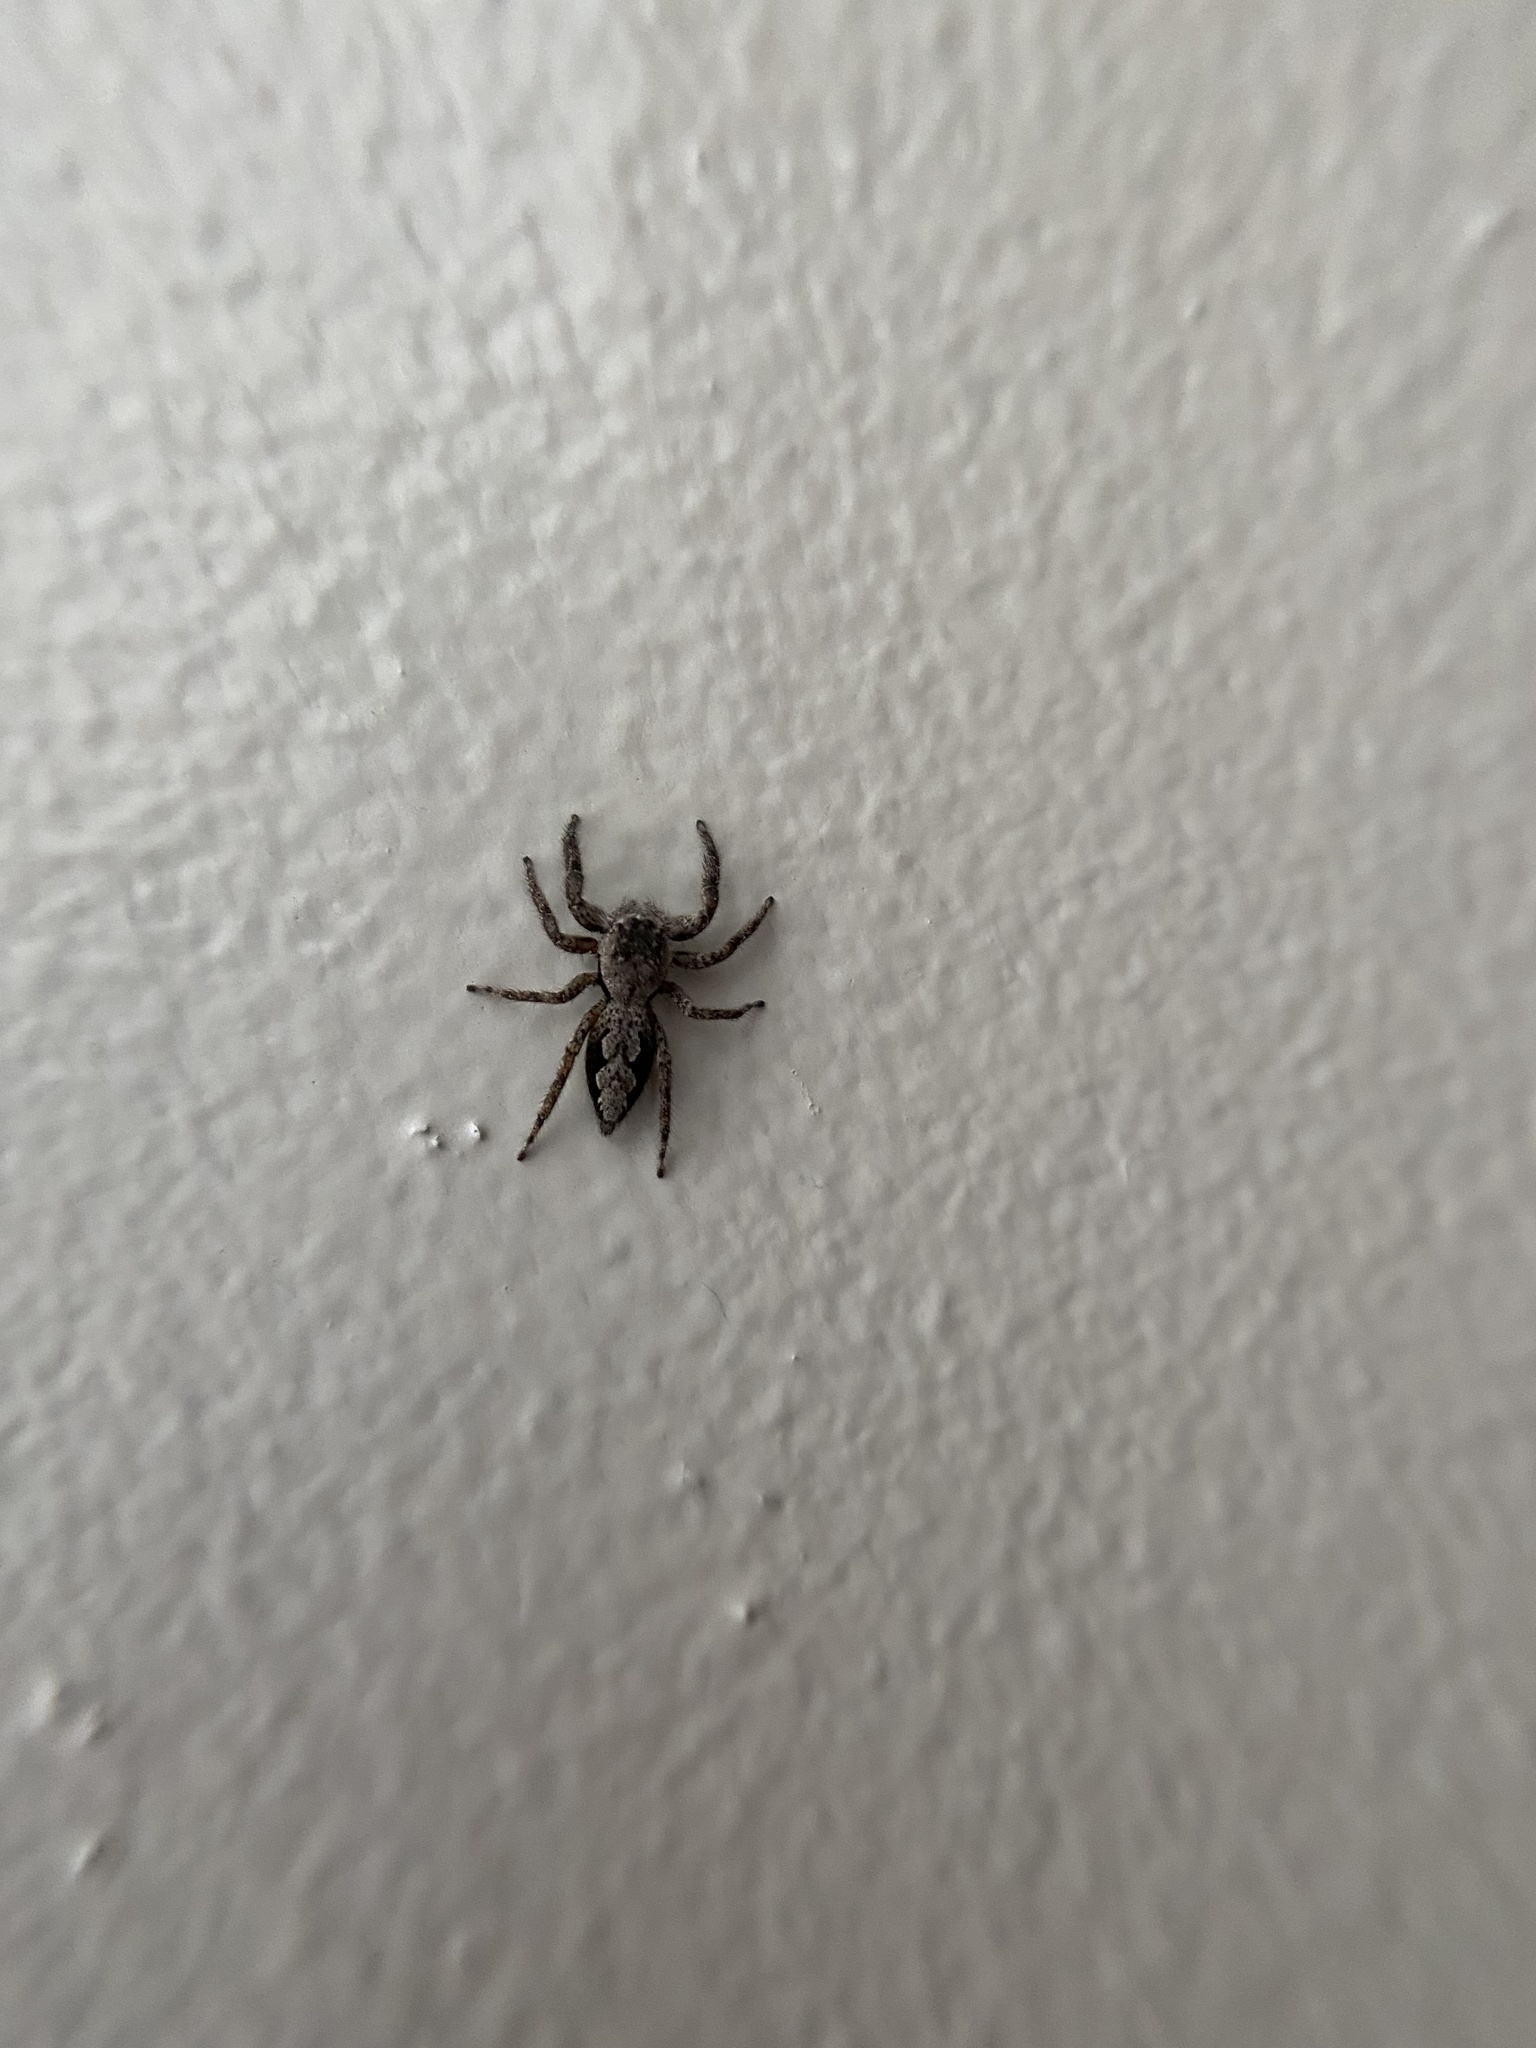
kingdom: Animalia
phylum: Arthropoda
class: Arachnida
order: Araneae
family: Salticidae
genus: Platycryptus
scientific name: Platycryptus undatus
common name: Tan jumping spider
